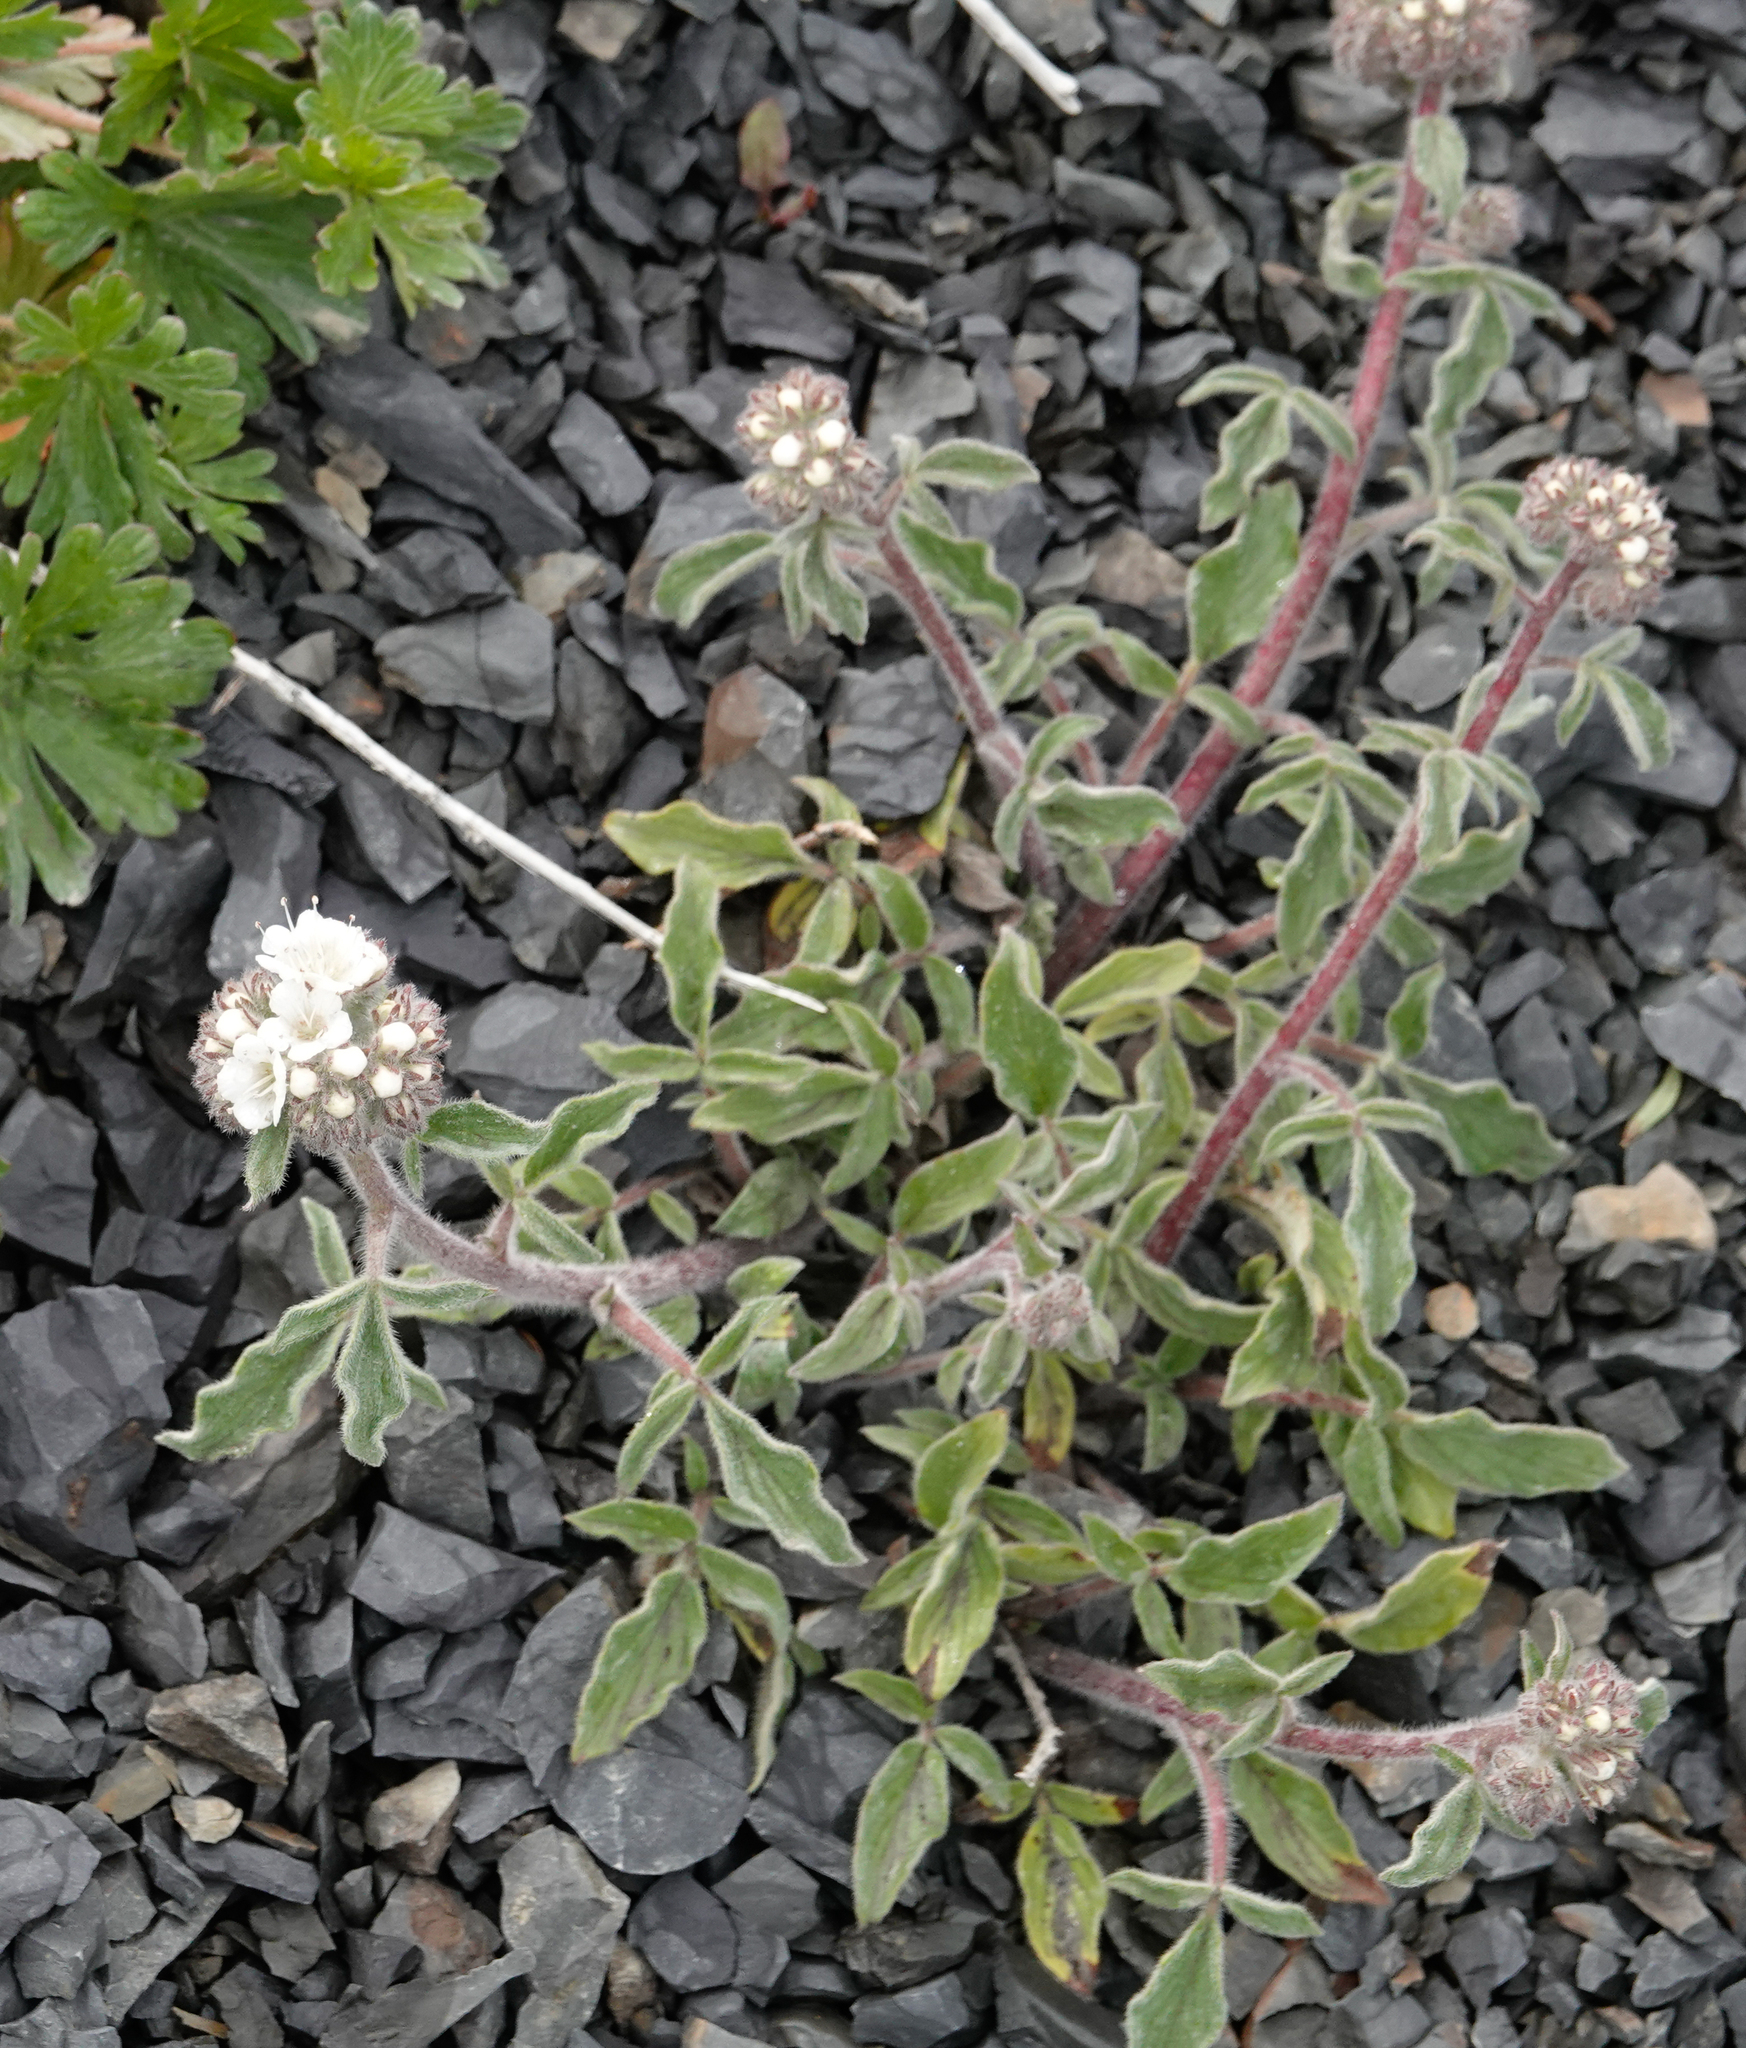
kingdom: Plantae
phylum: Tracheophyta
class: Magnoliopsida
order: Boraginales
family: Hydrophyllaceae
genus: Phacelia
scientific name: Phacelia secunda
